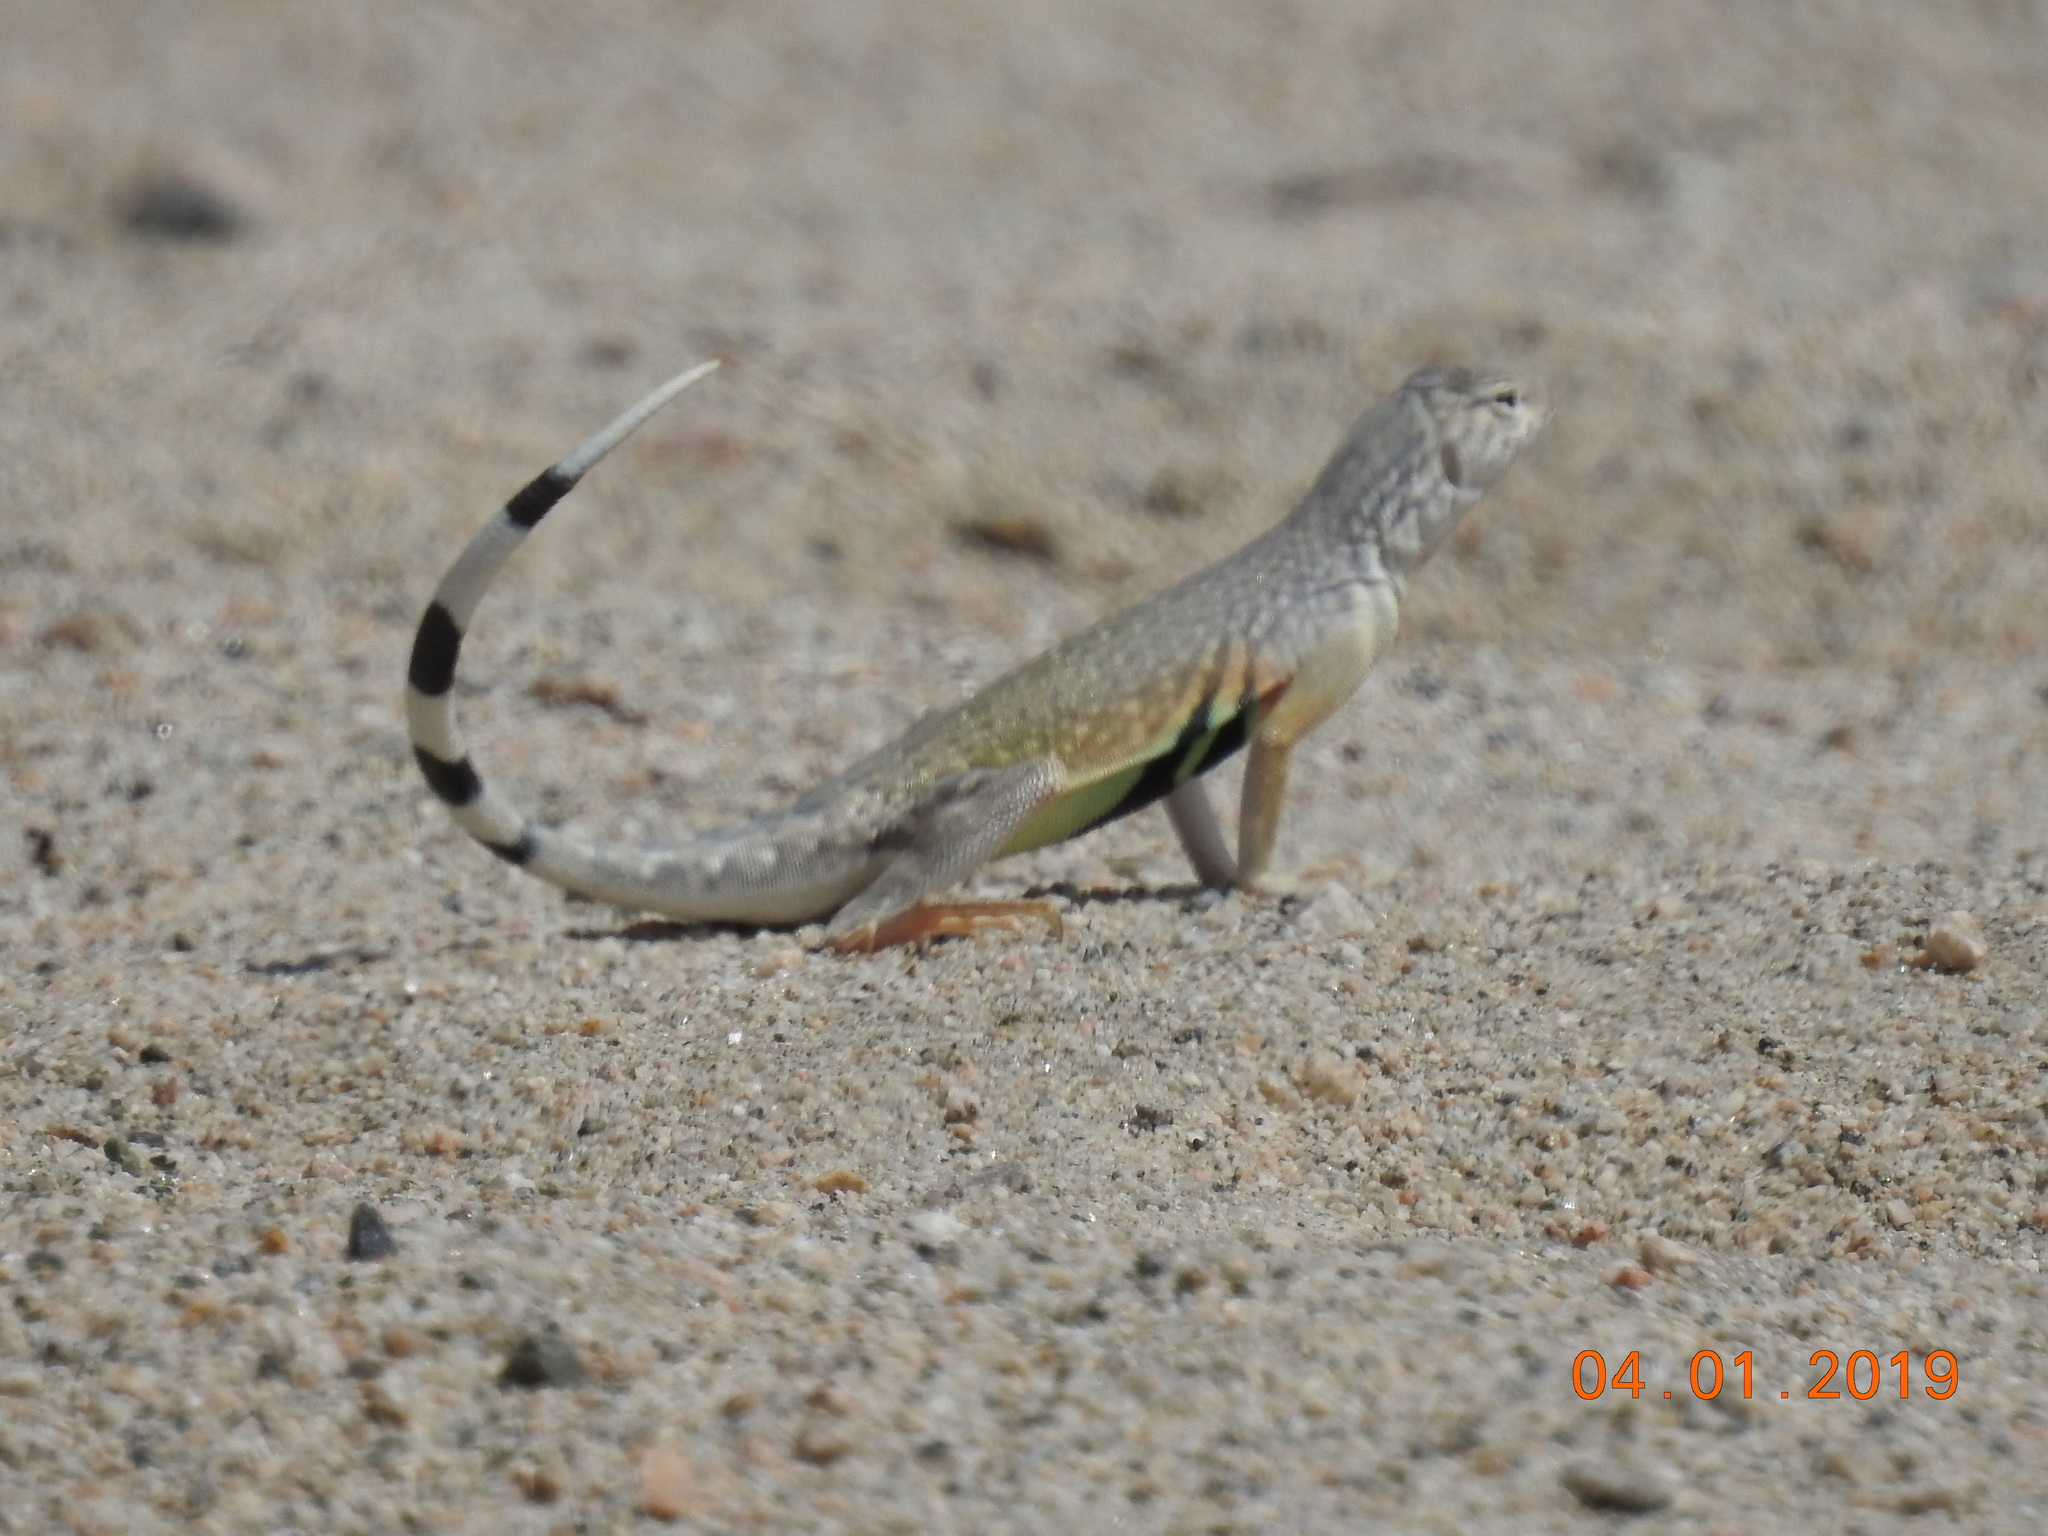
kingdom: Animalia
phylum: Chordata
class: Squamata
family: Phrynosomatidae
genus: Callisaurus
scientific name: Callisaurus draconoides
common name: Zebra-tailed lizard
